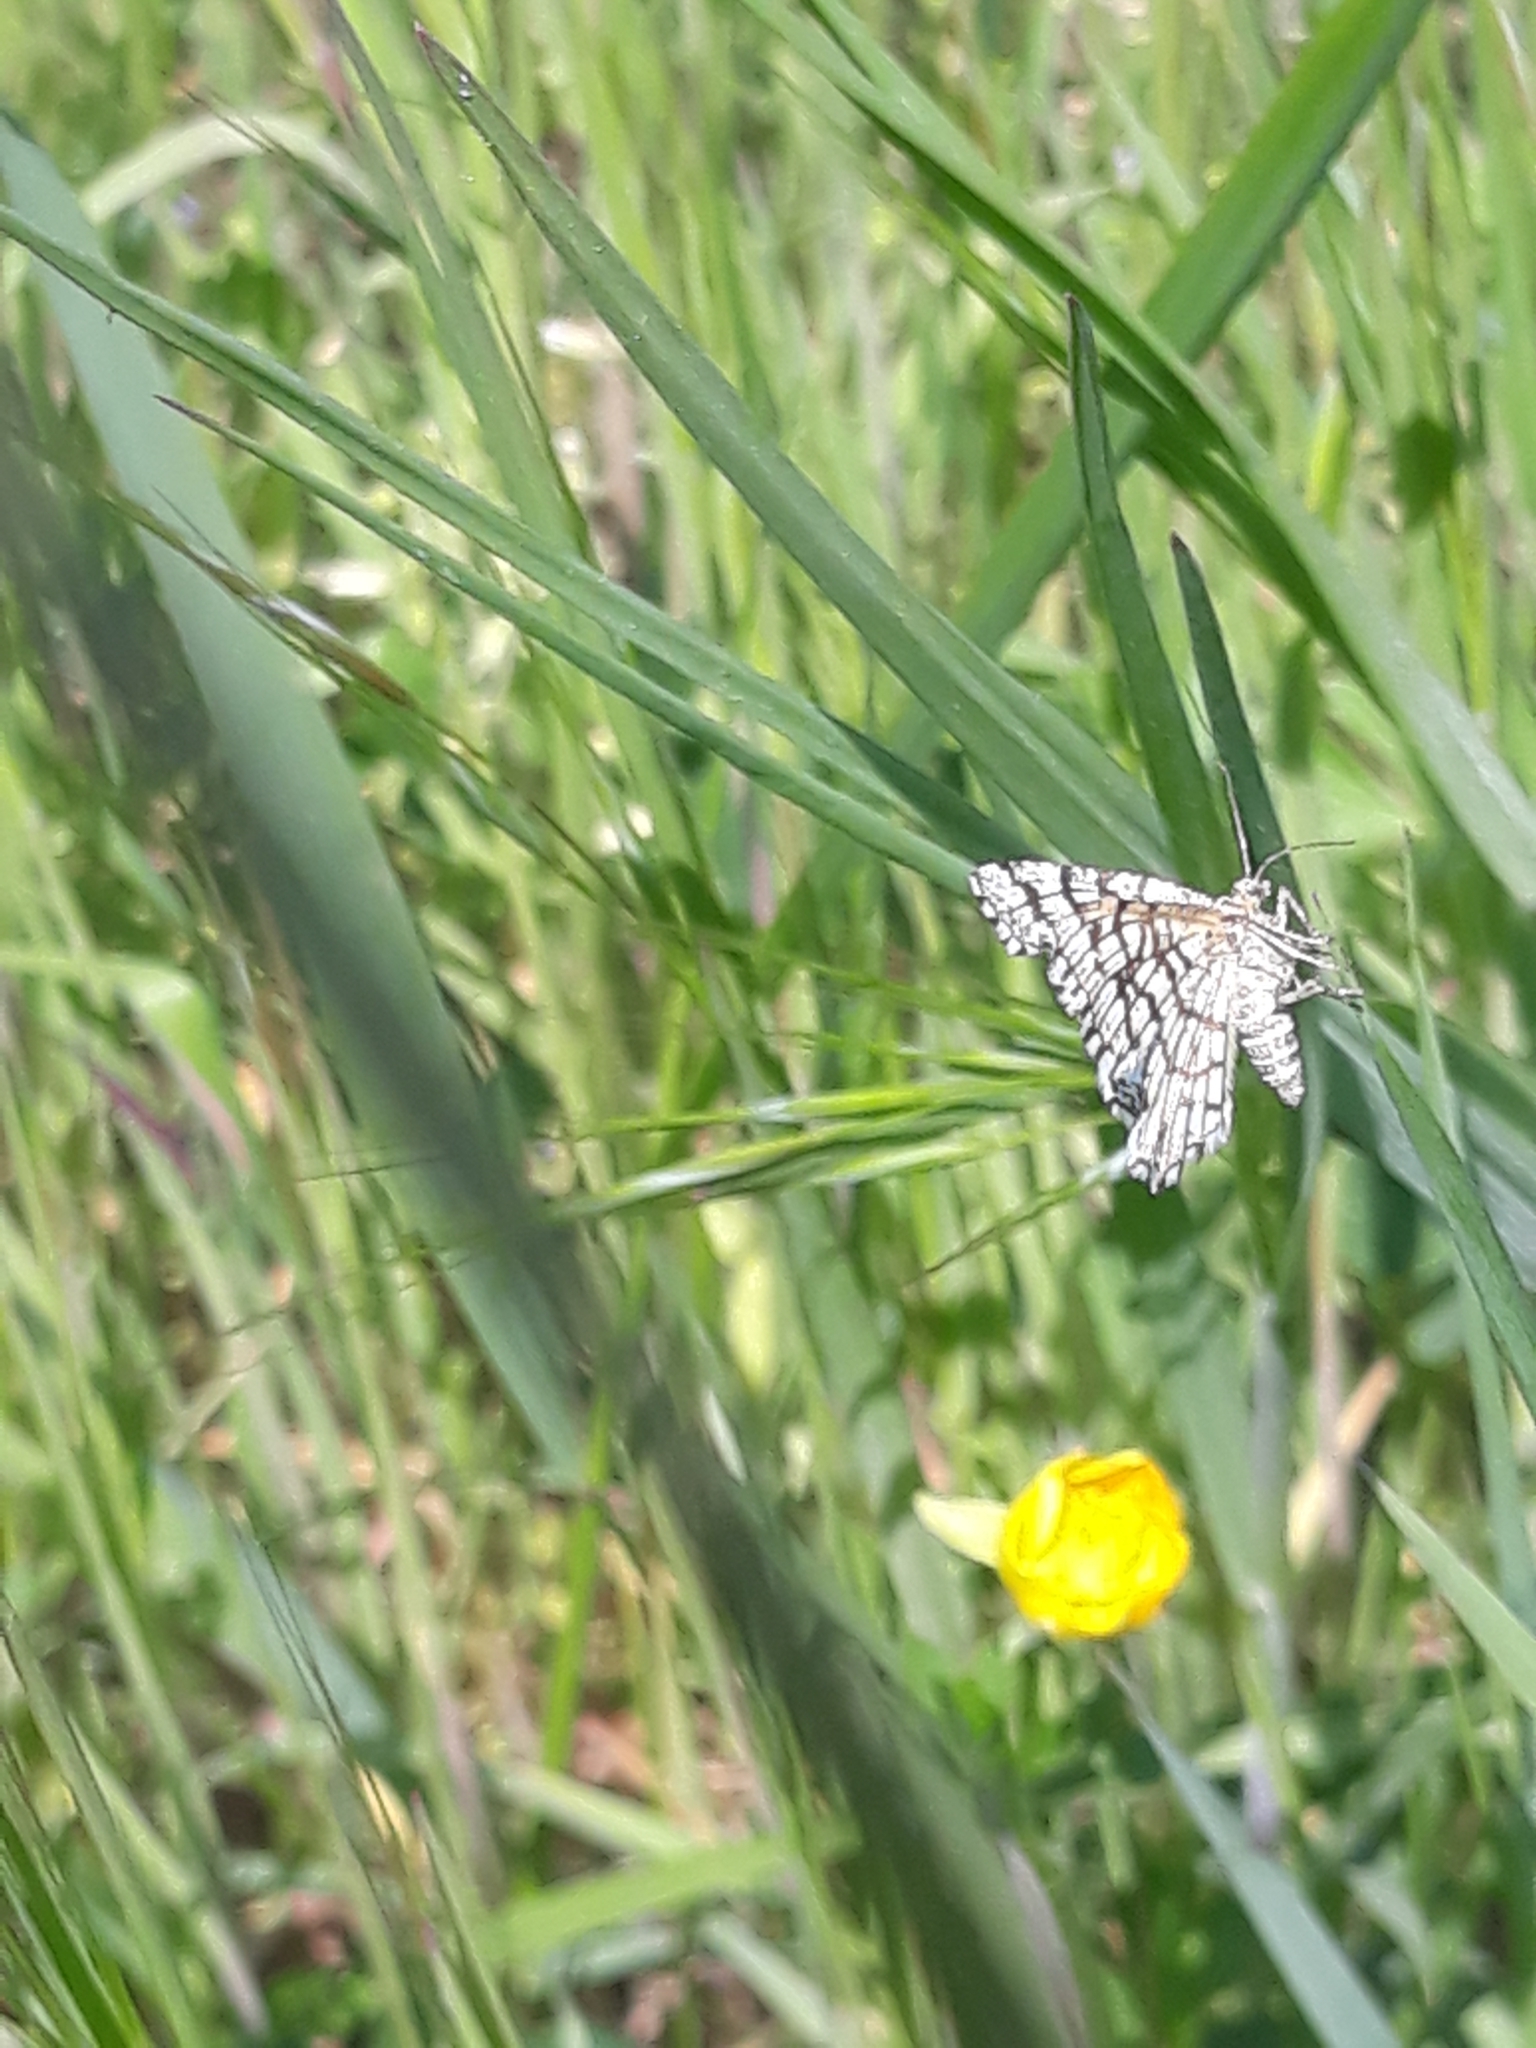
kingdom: Animalia
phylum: Arthropoda
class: Insecta
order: Lepidoptera
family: Geometridae
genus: Chiasmia
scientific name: Chiasmia clathrata
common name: Latticed heath
